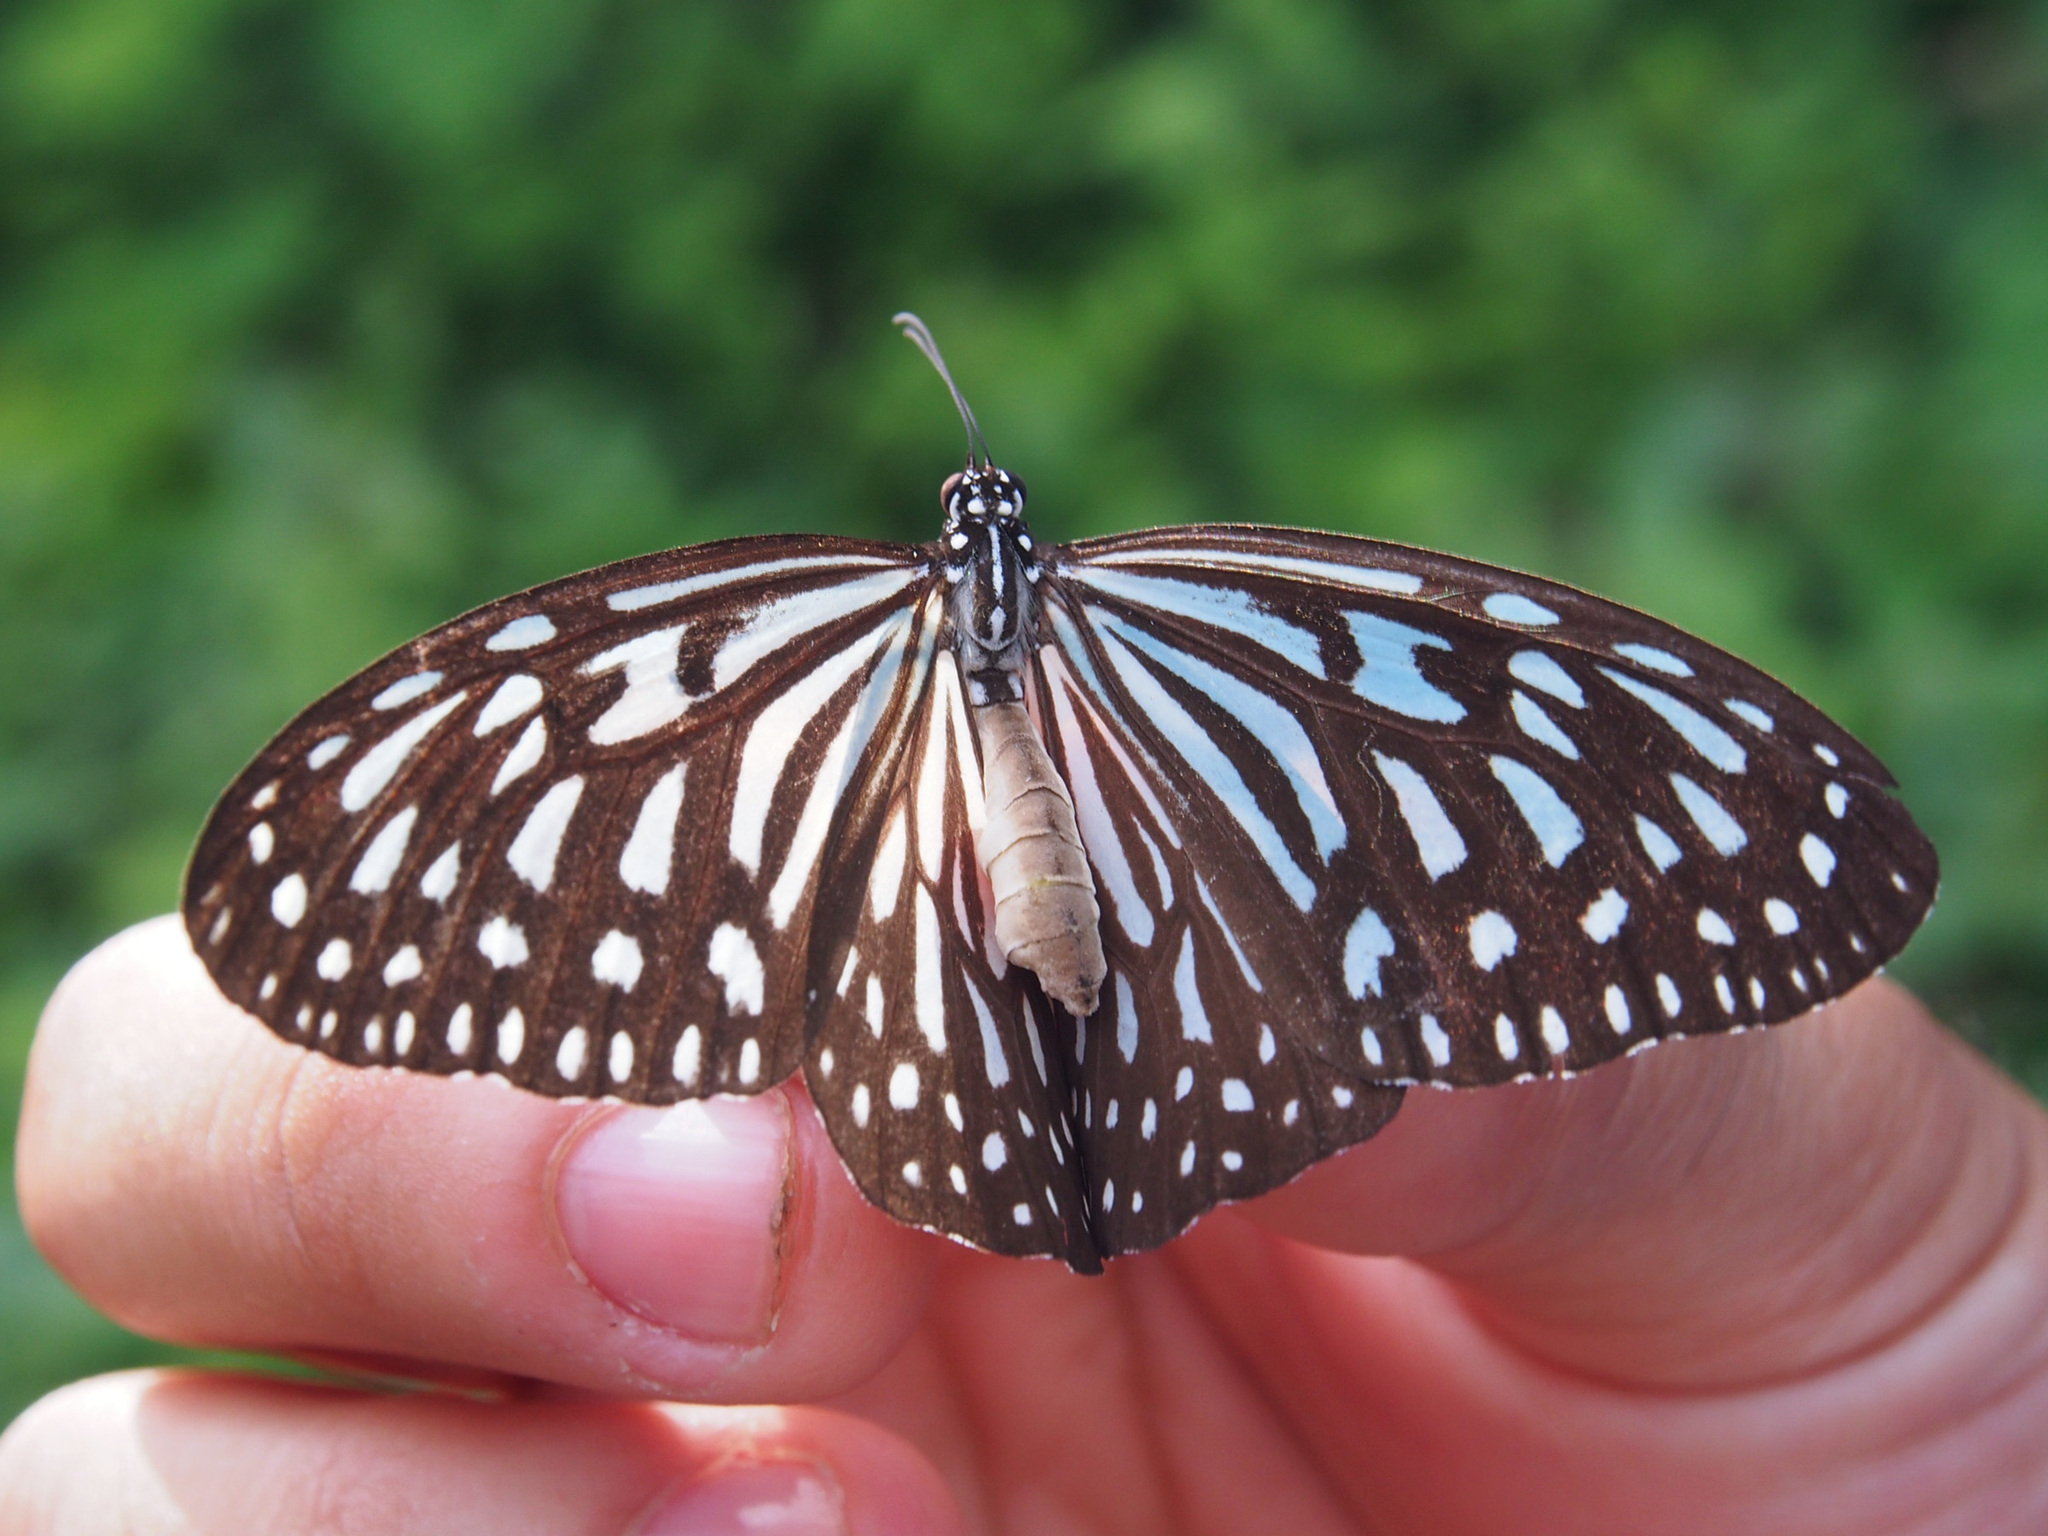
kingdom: Animalia
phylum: Arthropoda
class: Insecta
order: Lepidoptera
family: Nymphalidae
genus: Ideopsis
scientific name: Ideopsis vulgaris
